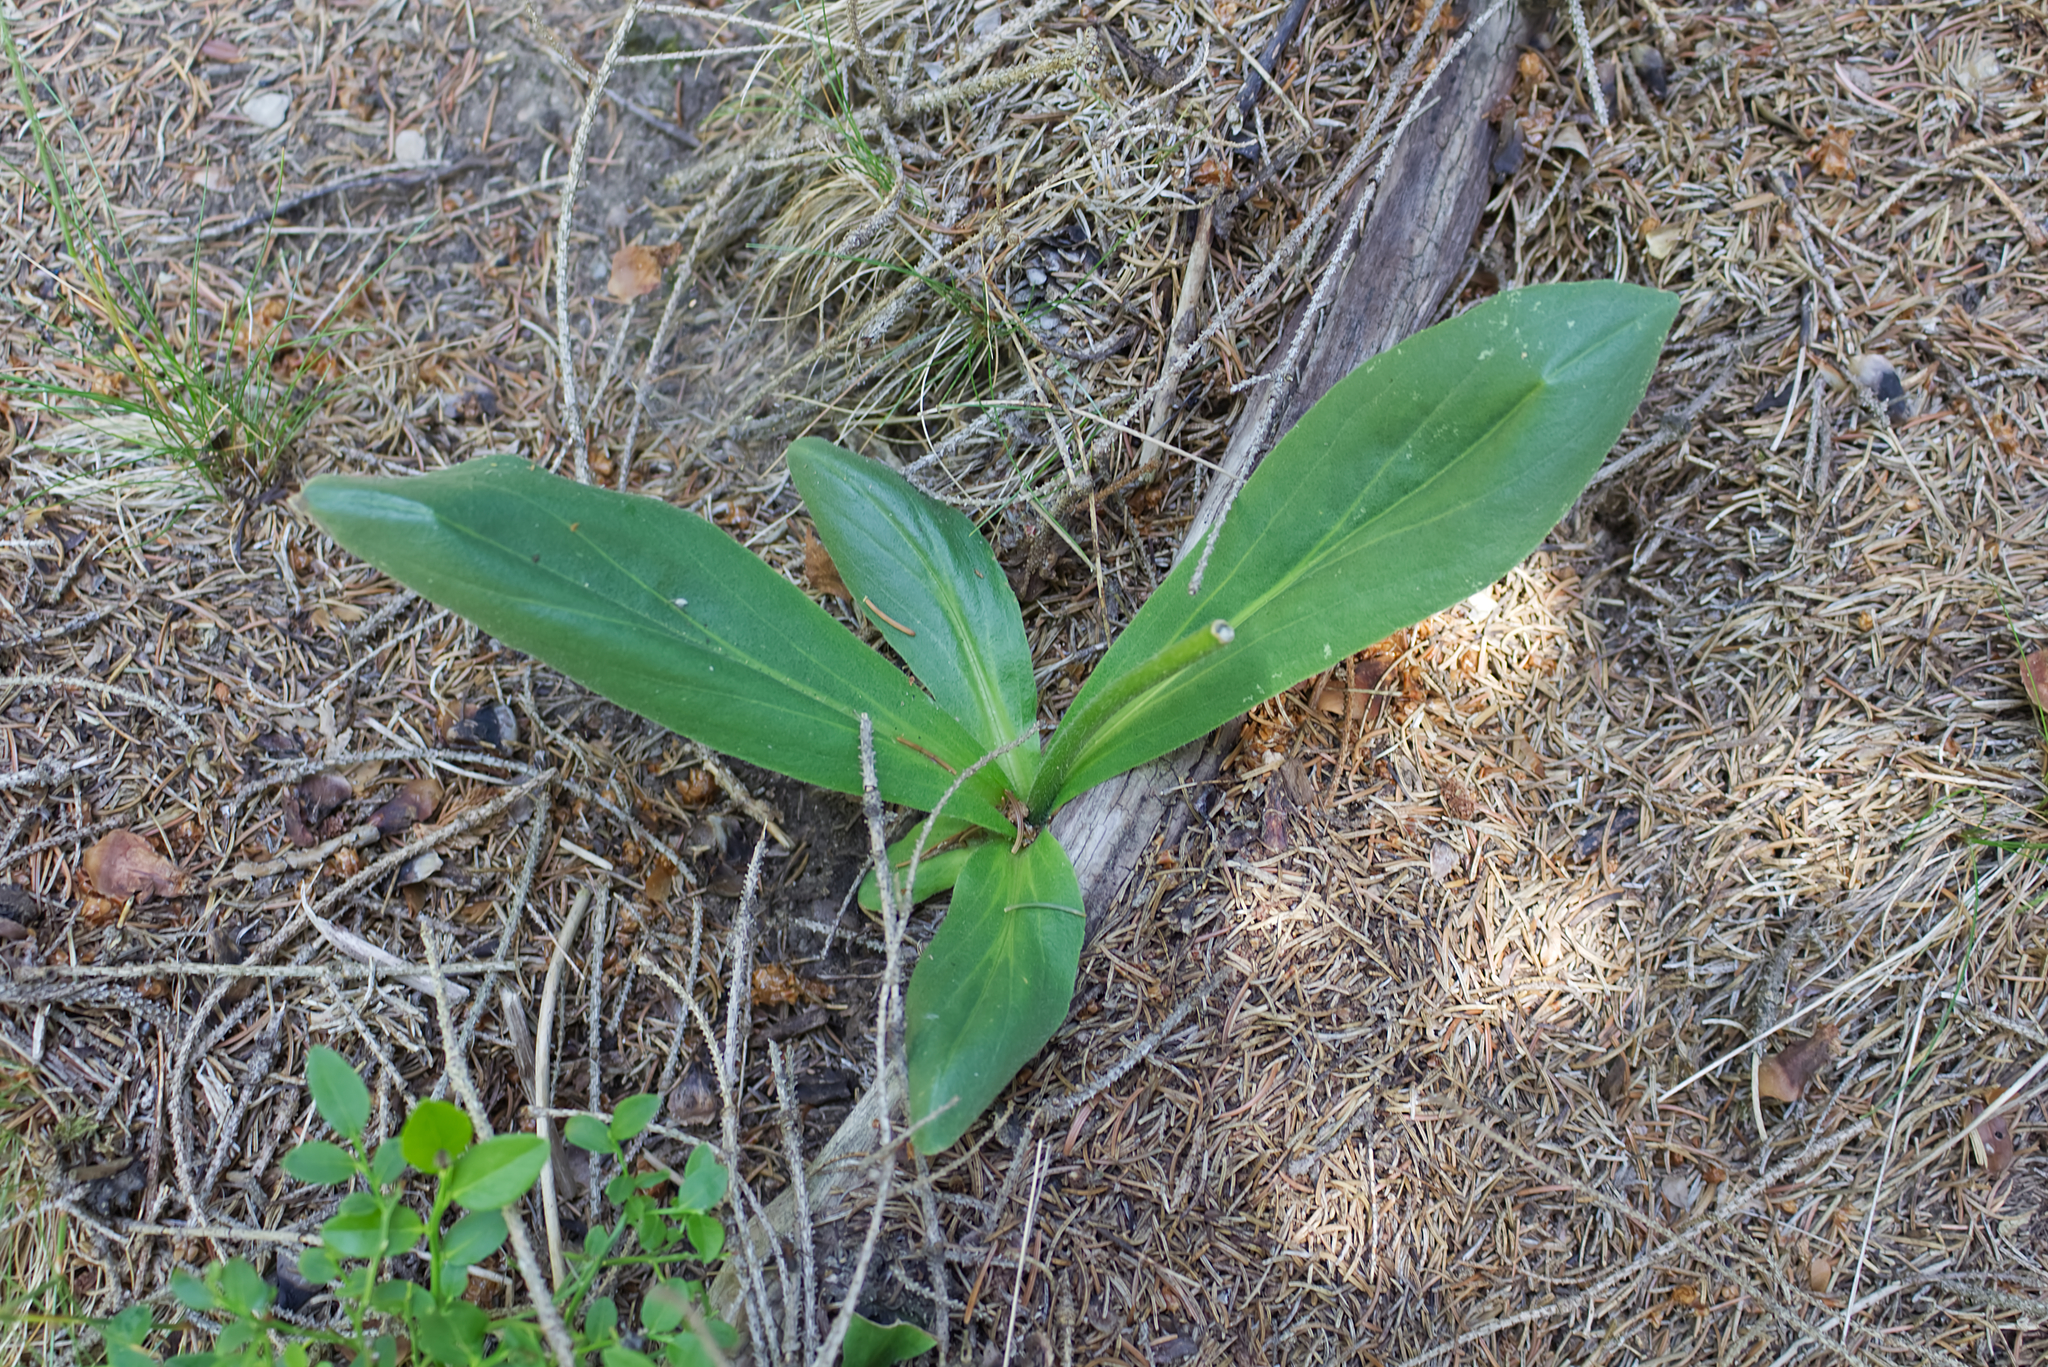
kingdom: Plantae
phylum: Tracheophyta
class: Magnoliopsida
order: Asterales
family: Asteraceae
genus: Arnica
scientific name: Arnica montana
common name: Leopard's bane
